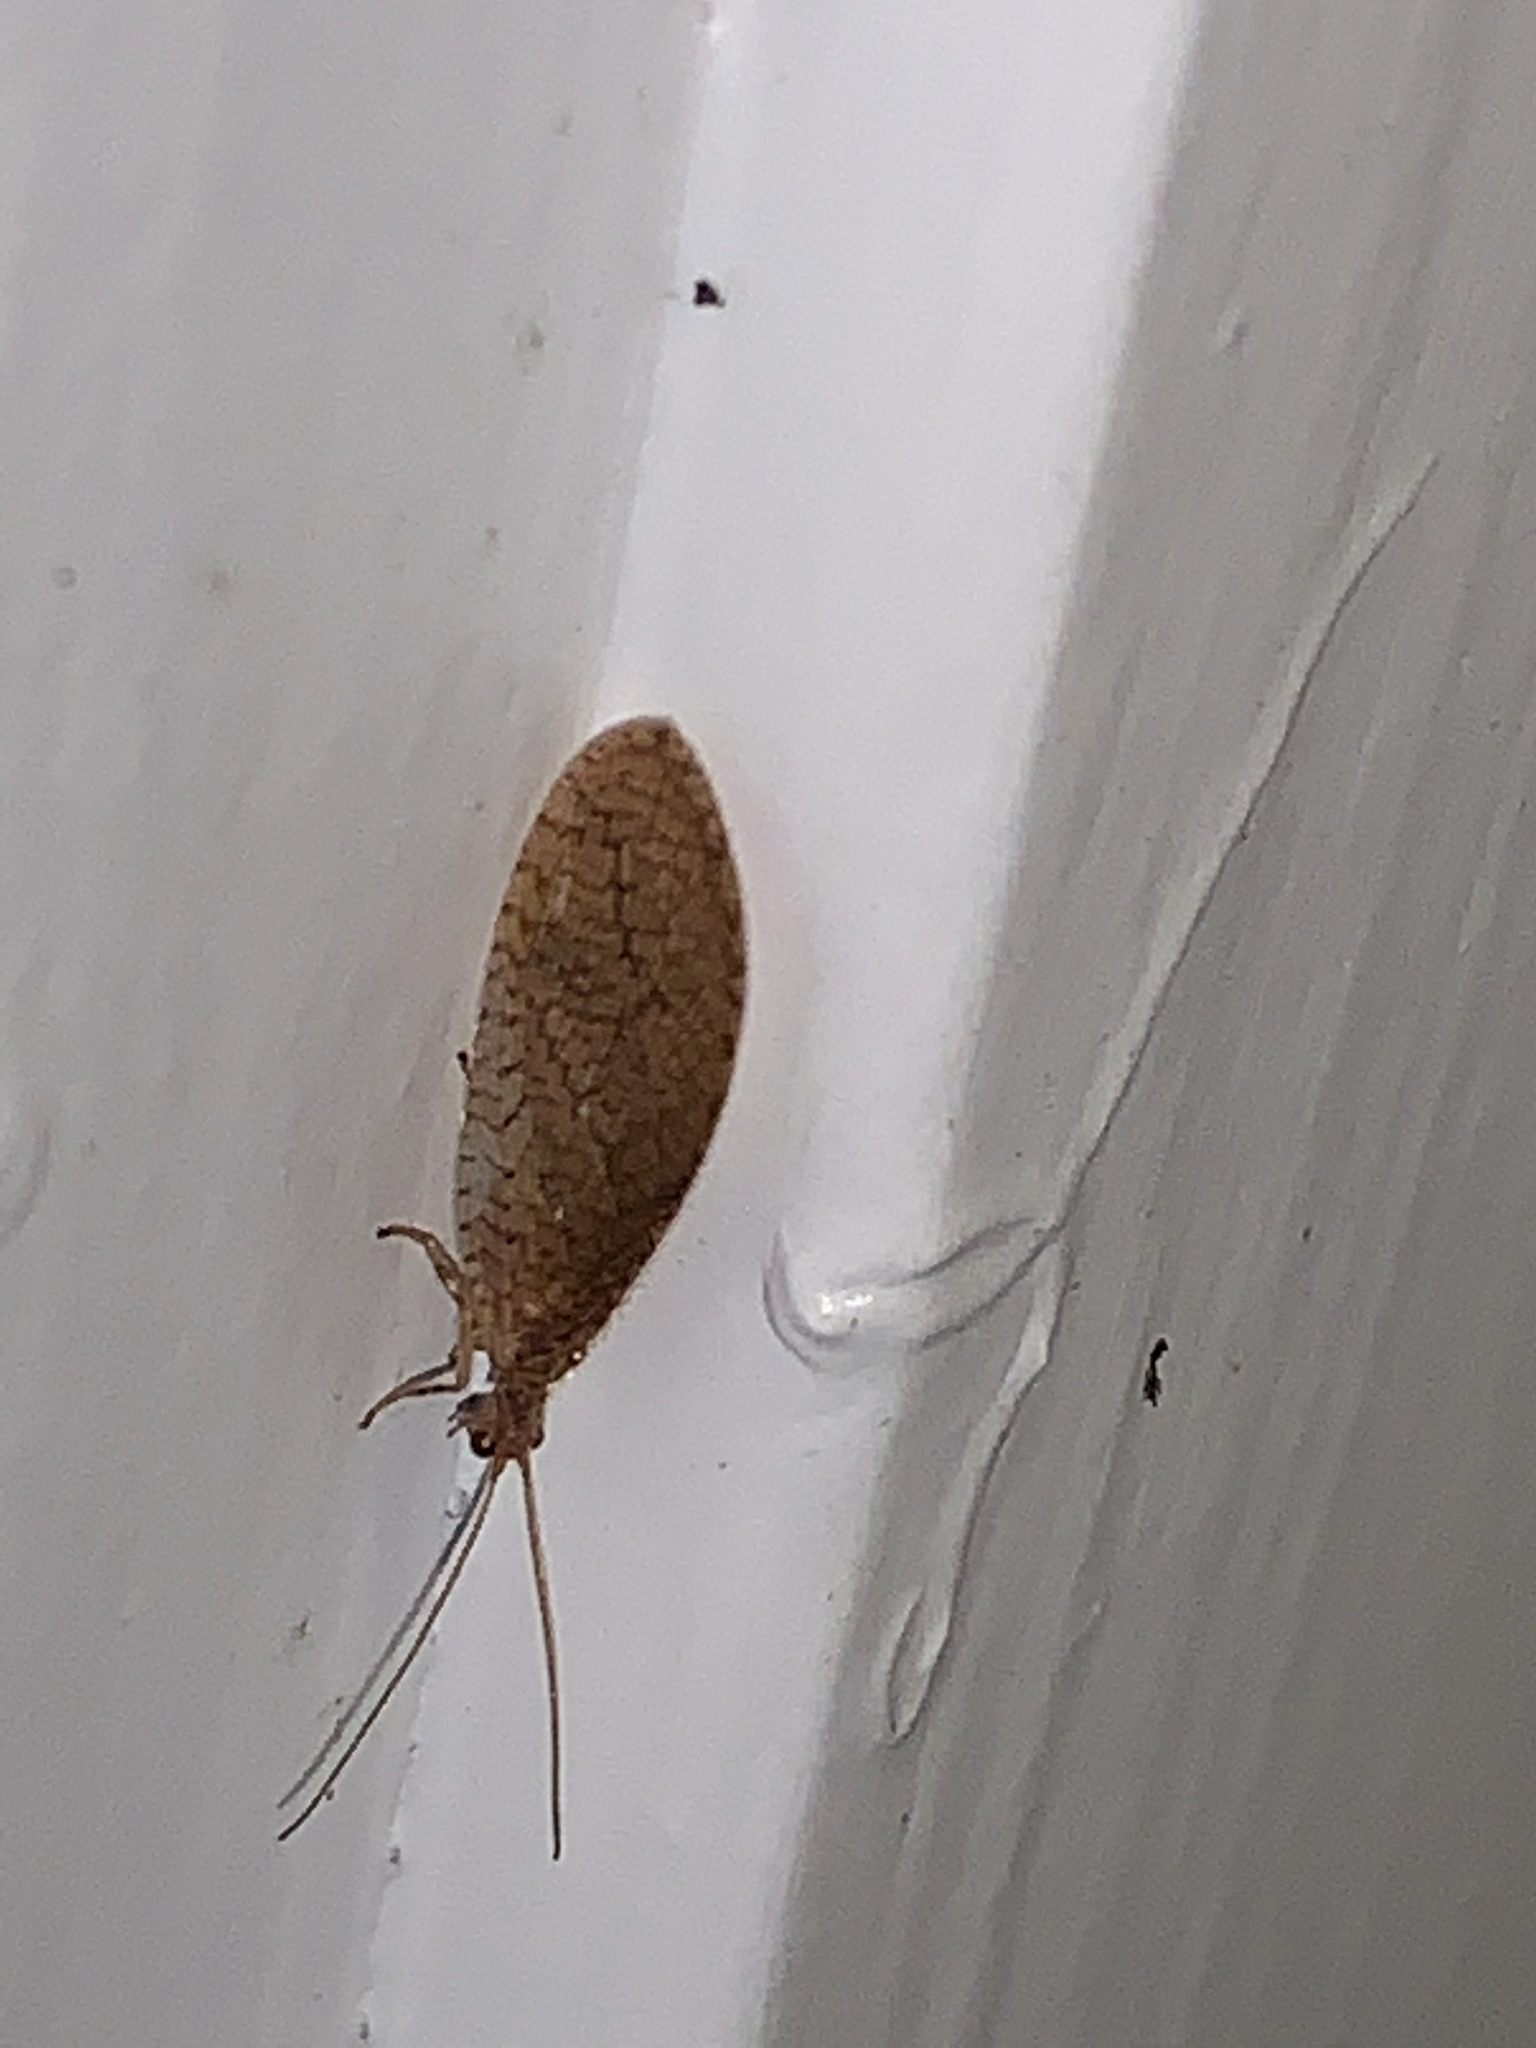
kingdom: Animalia
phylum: Arthropoda
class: Insecta
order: Neuroptera
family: Hemerobiidae
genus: Micromus
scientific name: Micromus posticus
